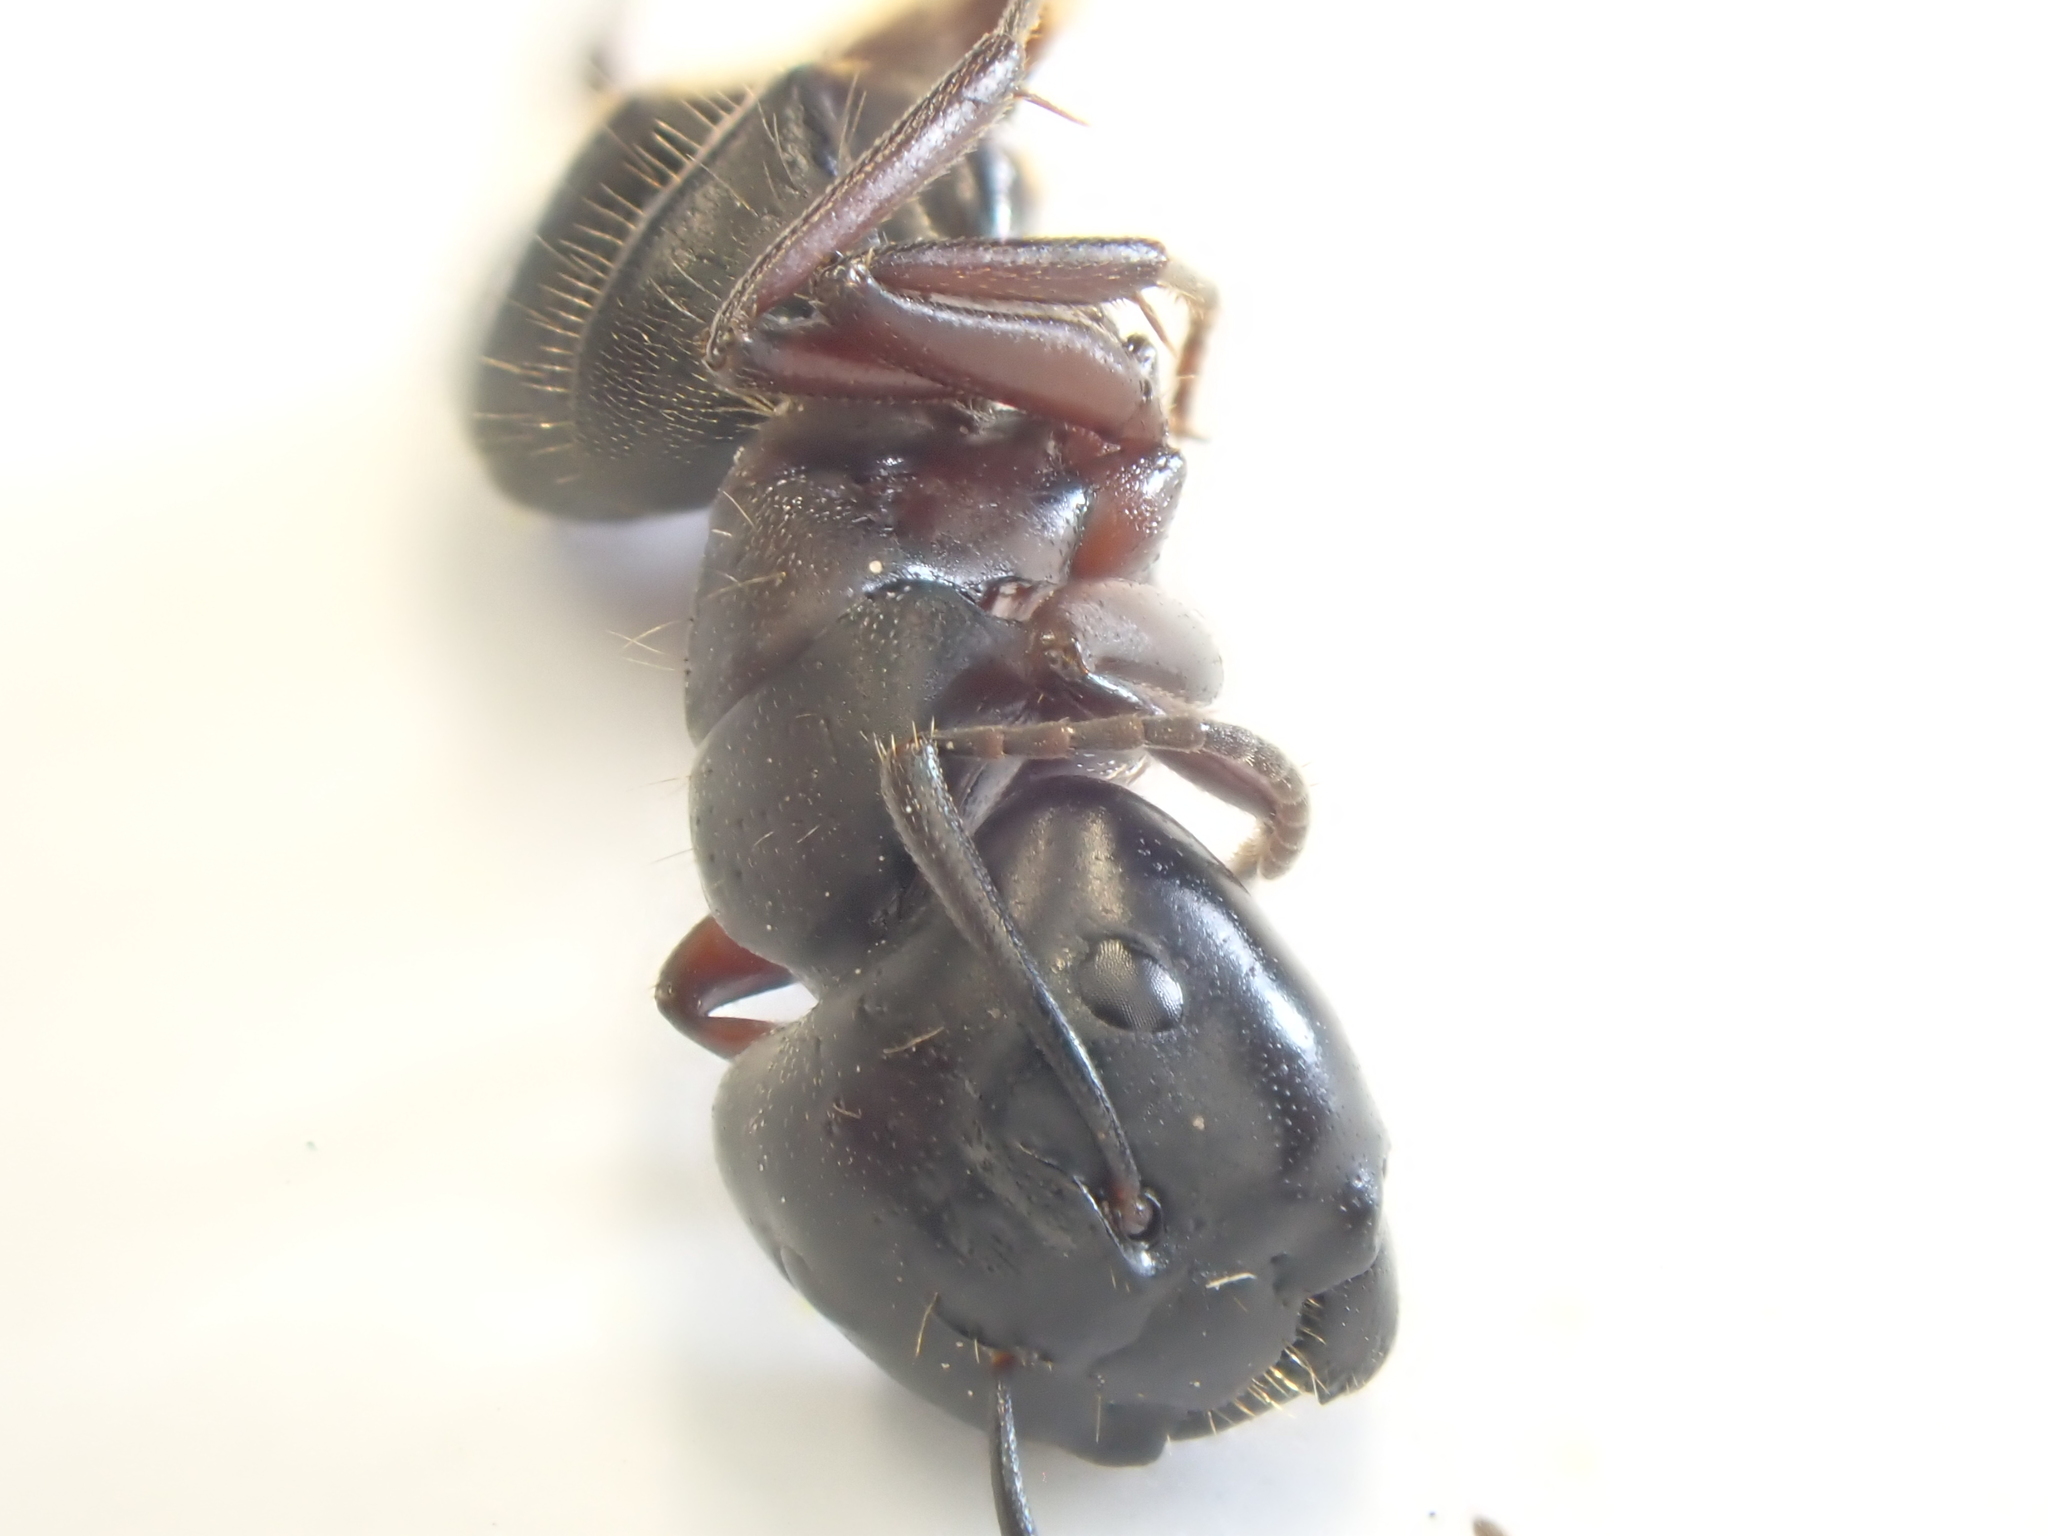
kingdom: Animalia
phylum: Arthropoda
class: Insecta
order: Hymenoptera
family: Formicidae
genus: Camponotus
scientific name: Camponotus herculeanus
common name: Hercules ant
